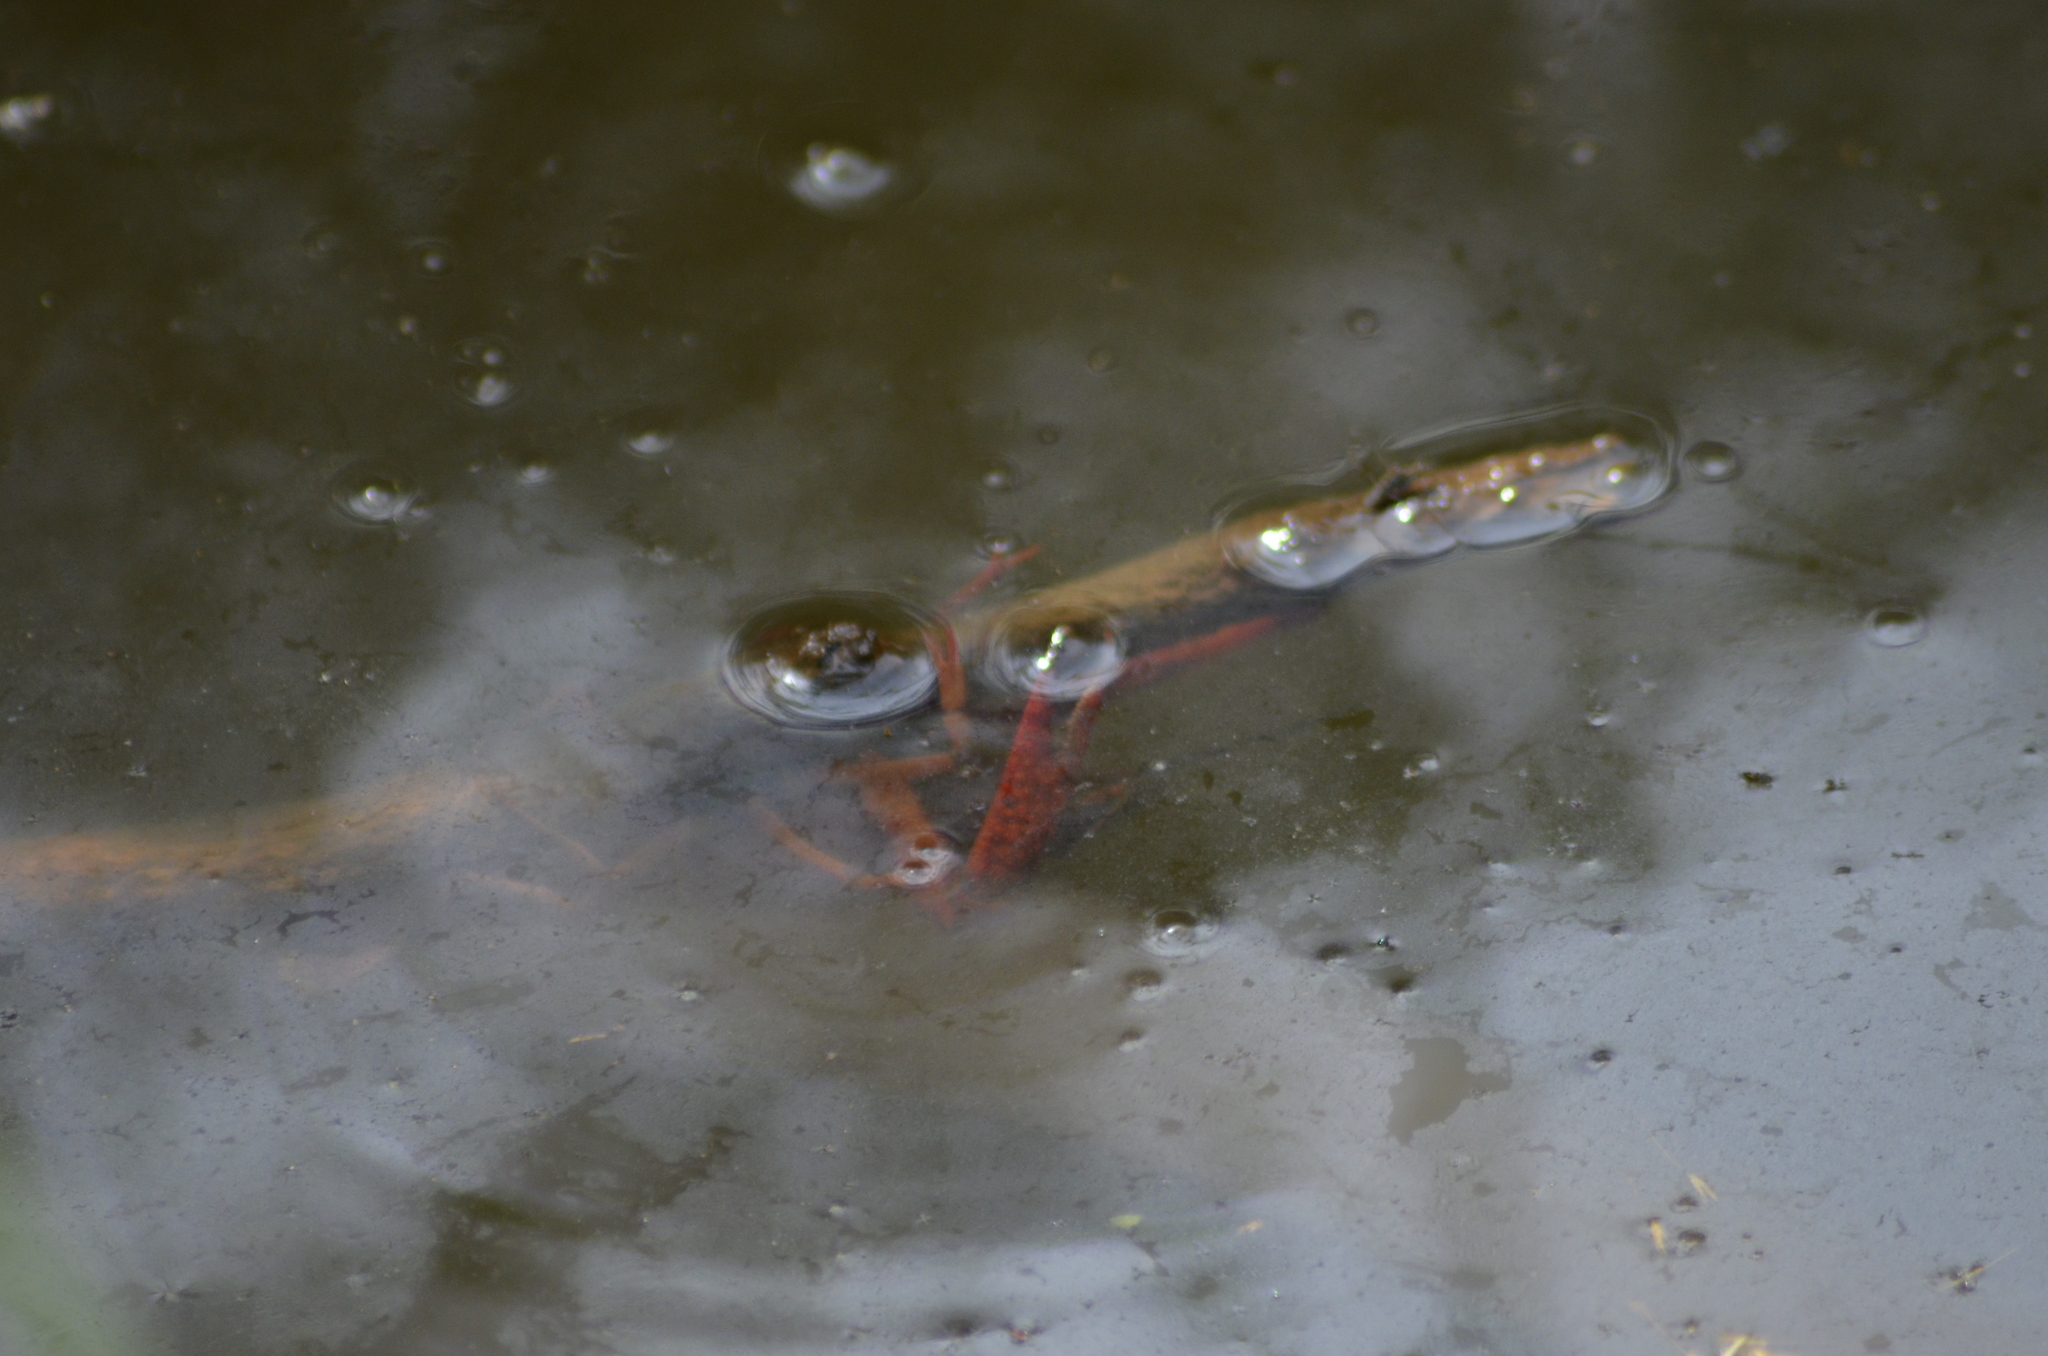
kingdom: Animalia
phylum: Arthropoda
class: Malacostraca
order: Decapoda
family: Cambaridae
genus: Procambarus
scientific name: Procambarus clarkii
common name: Red swamp crayfish
